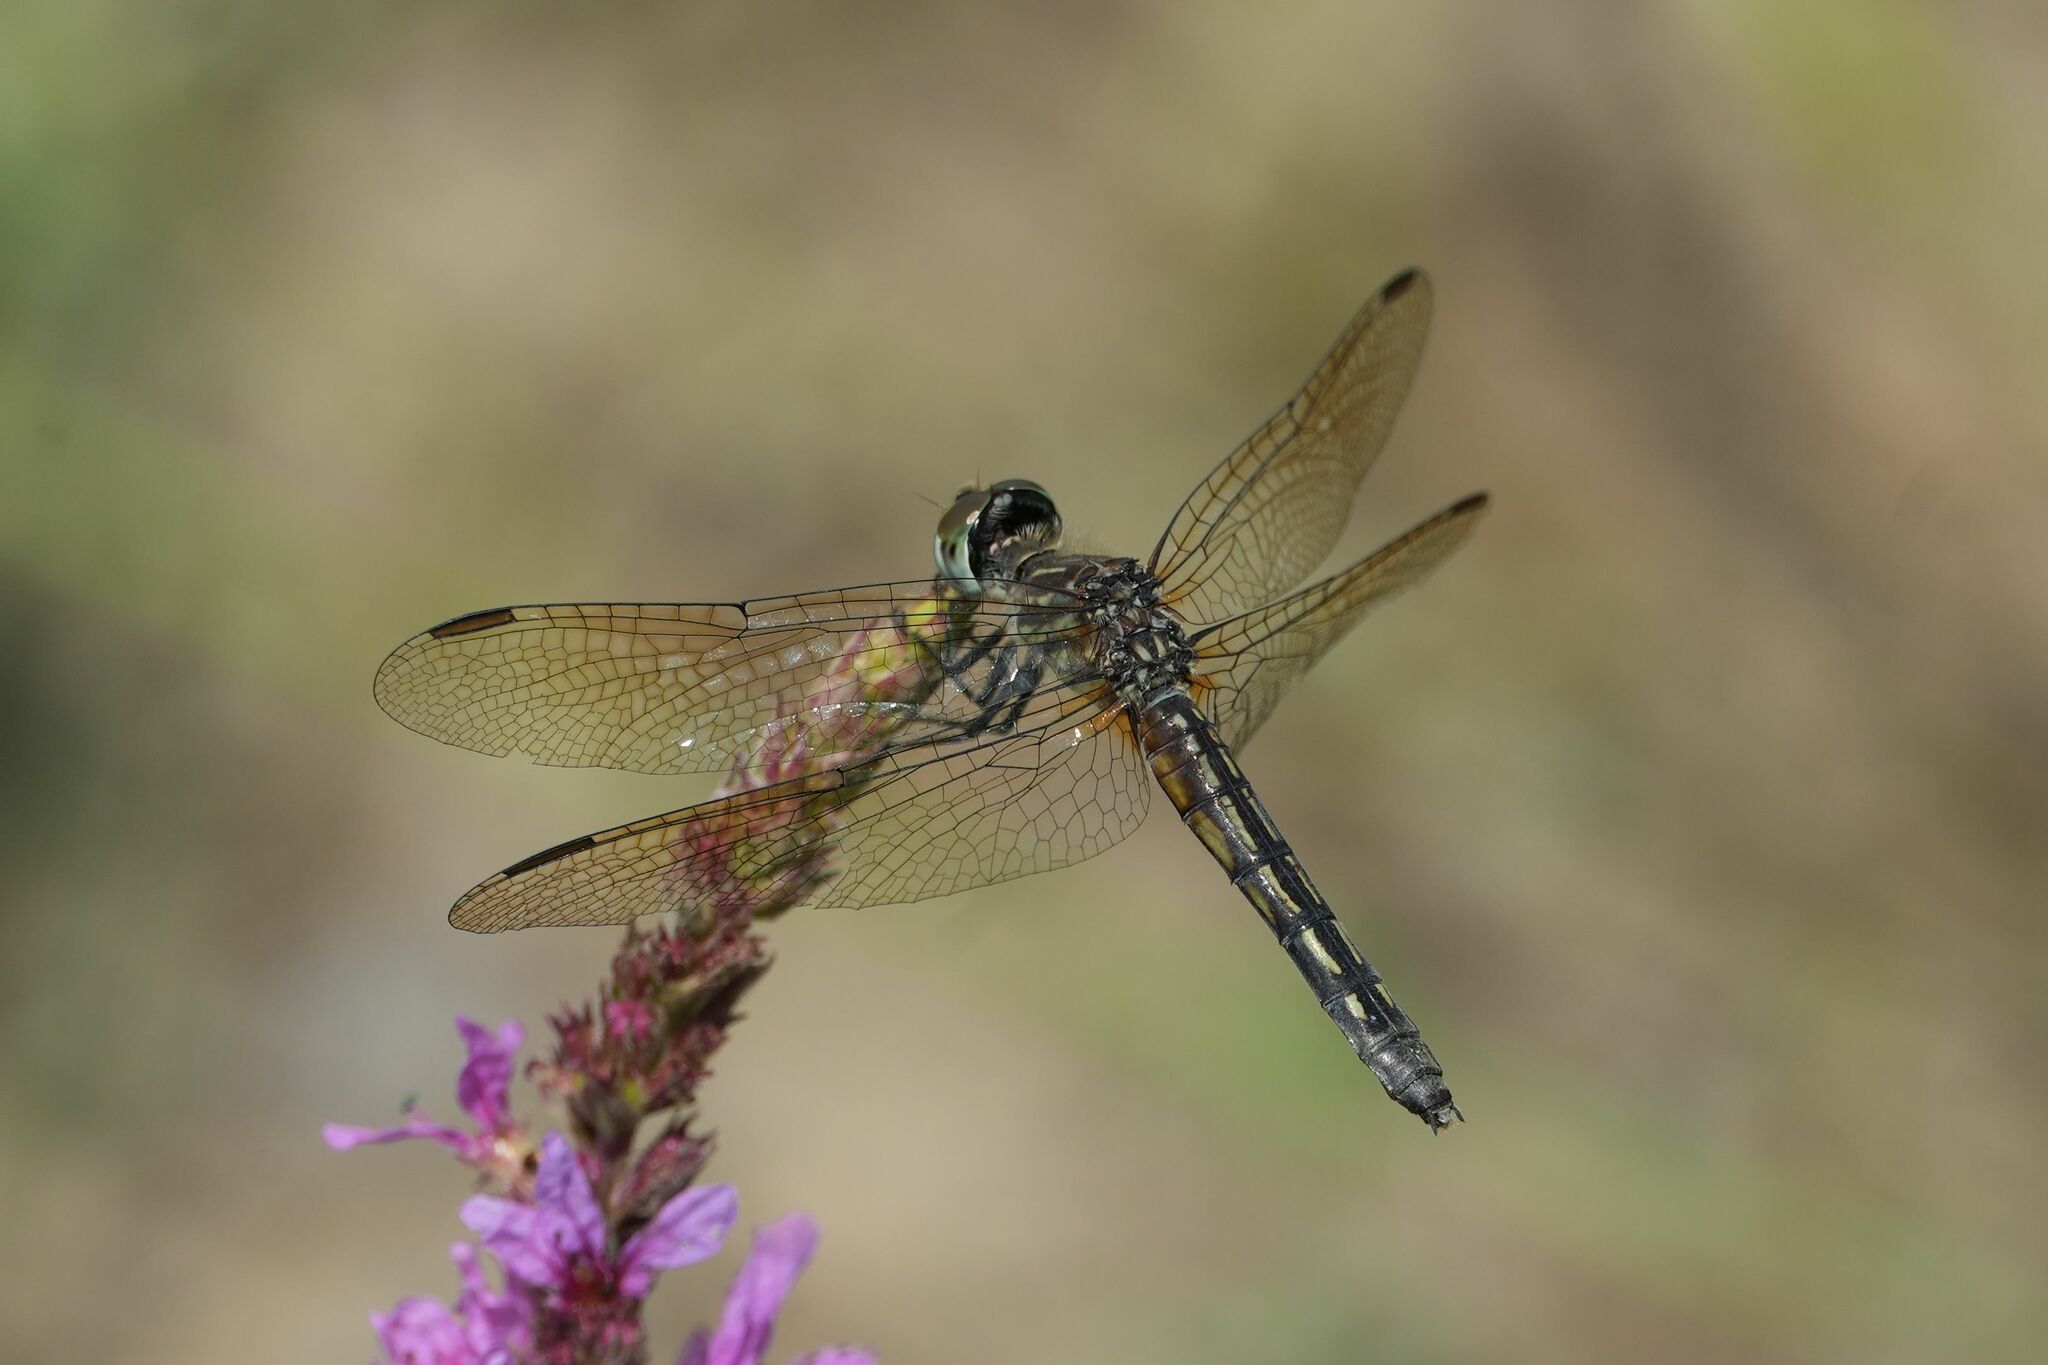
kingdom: Animalia
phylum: Arthropoda
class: Insecta
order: Odonata
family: Libellulidae
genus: Pachydiplax
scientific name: Pachydiplax longipennis
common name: Blue dasher
